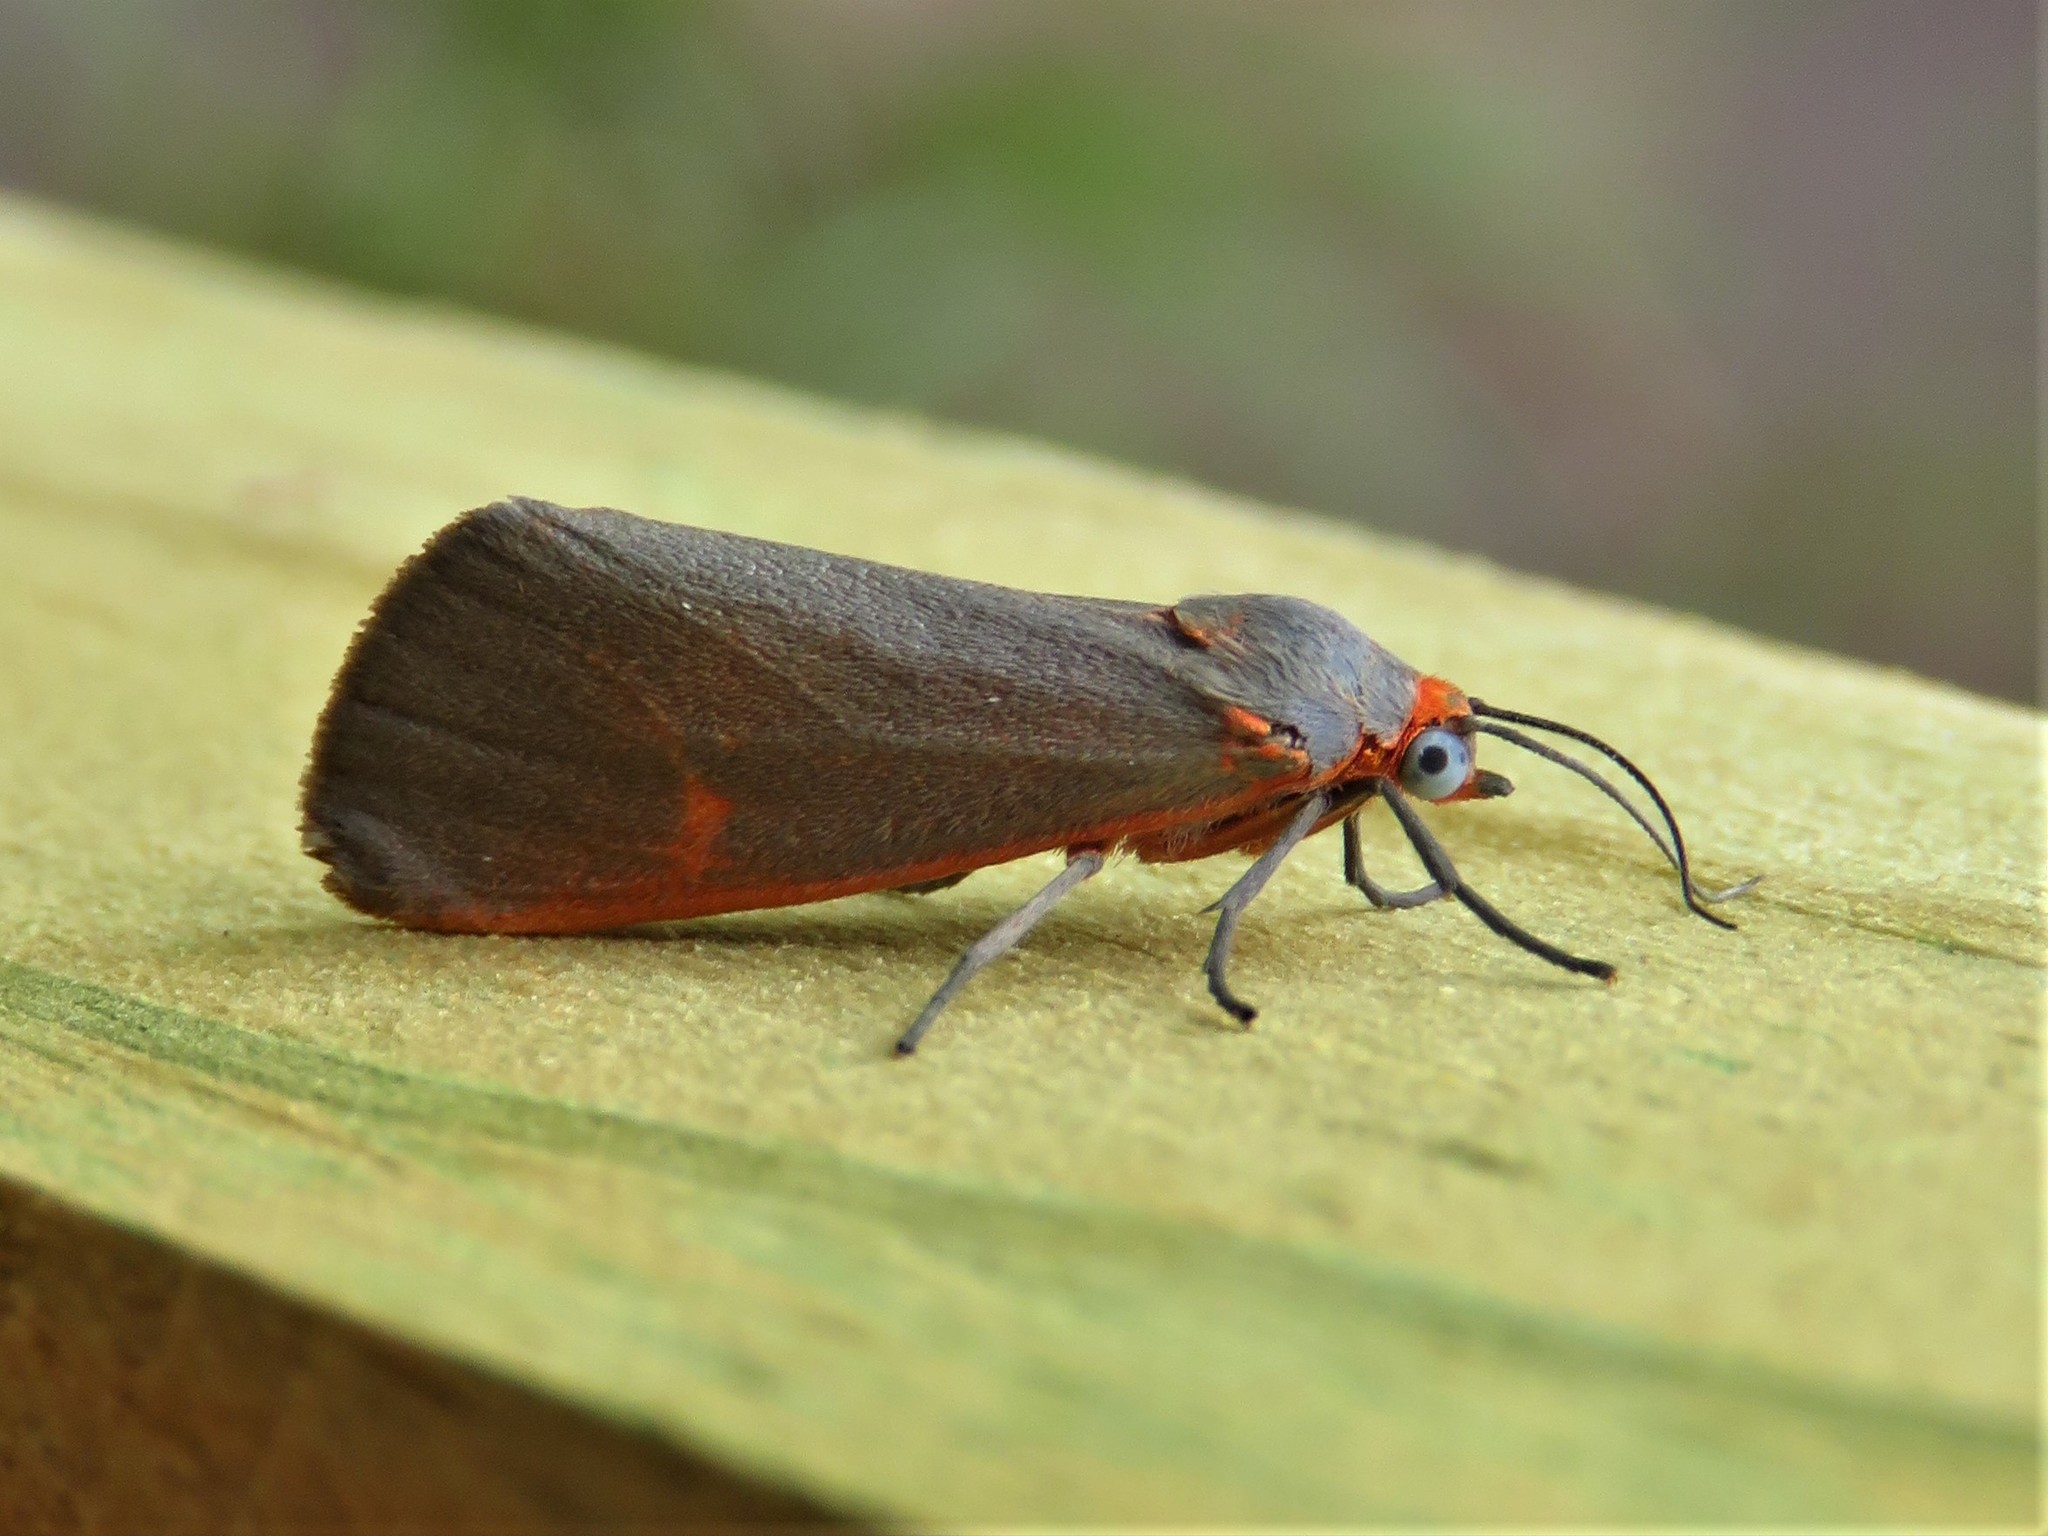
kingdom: Animalia
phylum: Arthropoda
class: Insecta
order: Lepidoptera
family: Erebidae
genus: Virbia
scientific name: Virbia costata
